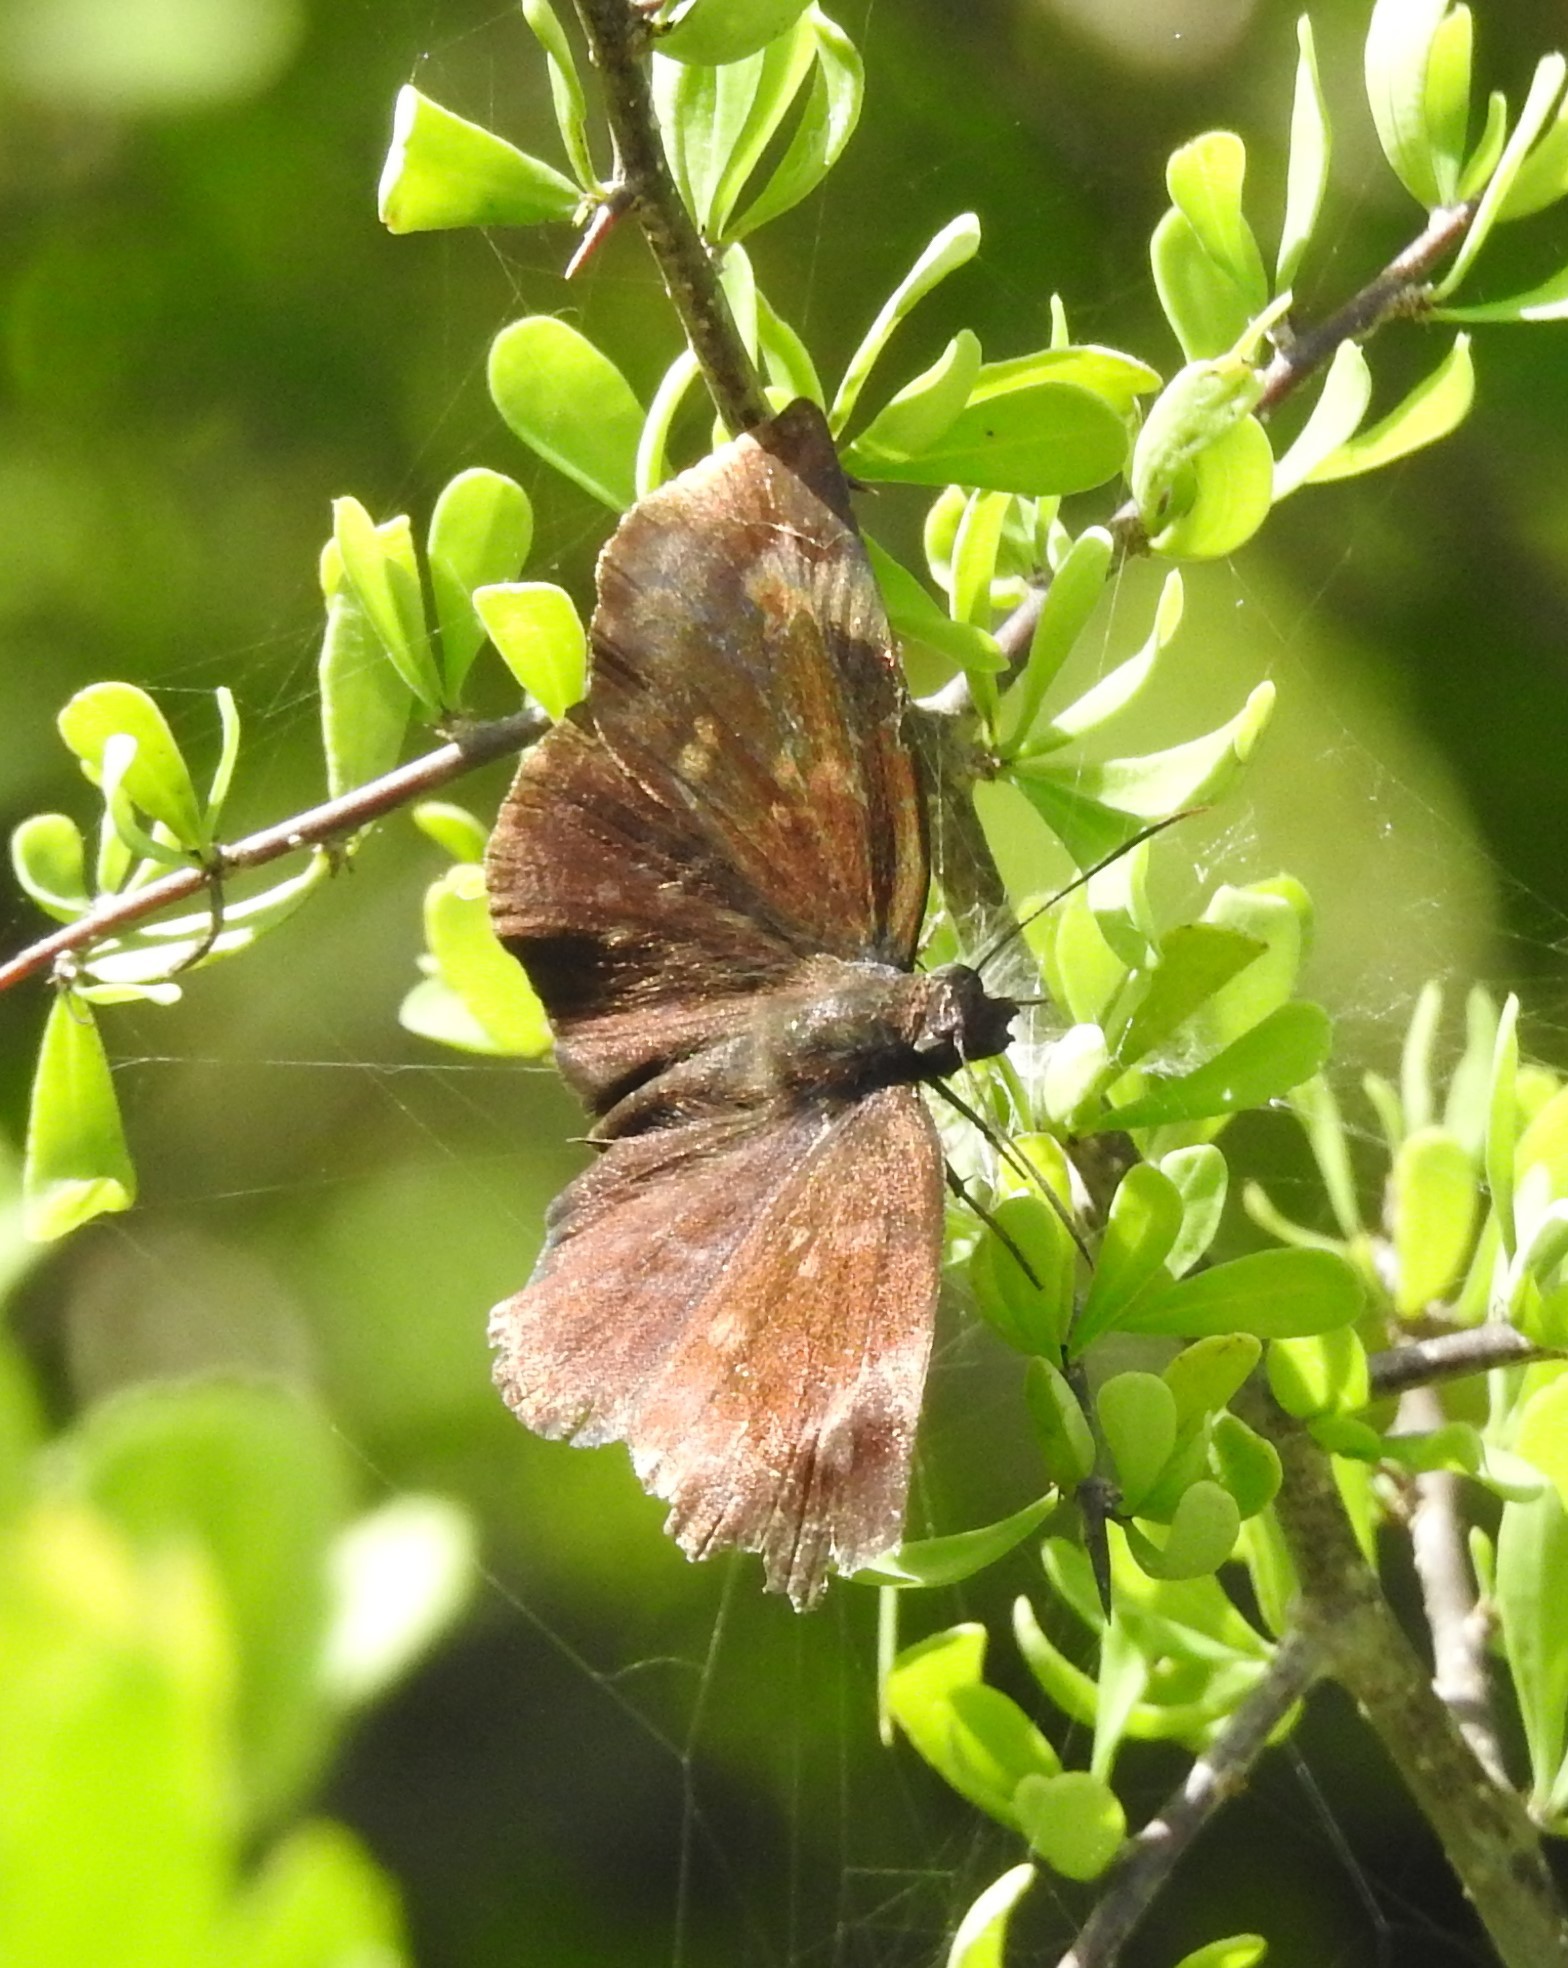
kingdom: Animalia
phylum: Arthropoda
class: Insecta
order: Lepidoptera
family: Hesperiidae
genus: Achlyodes
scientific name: Achlyodes thraso
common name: Sickle-winged skipper
